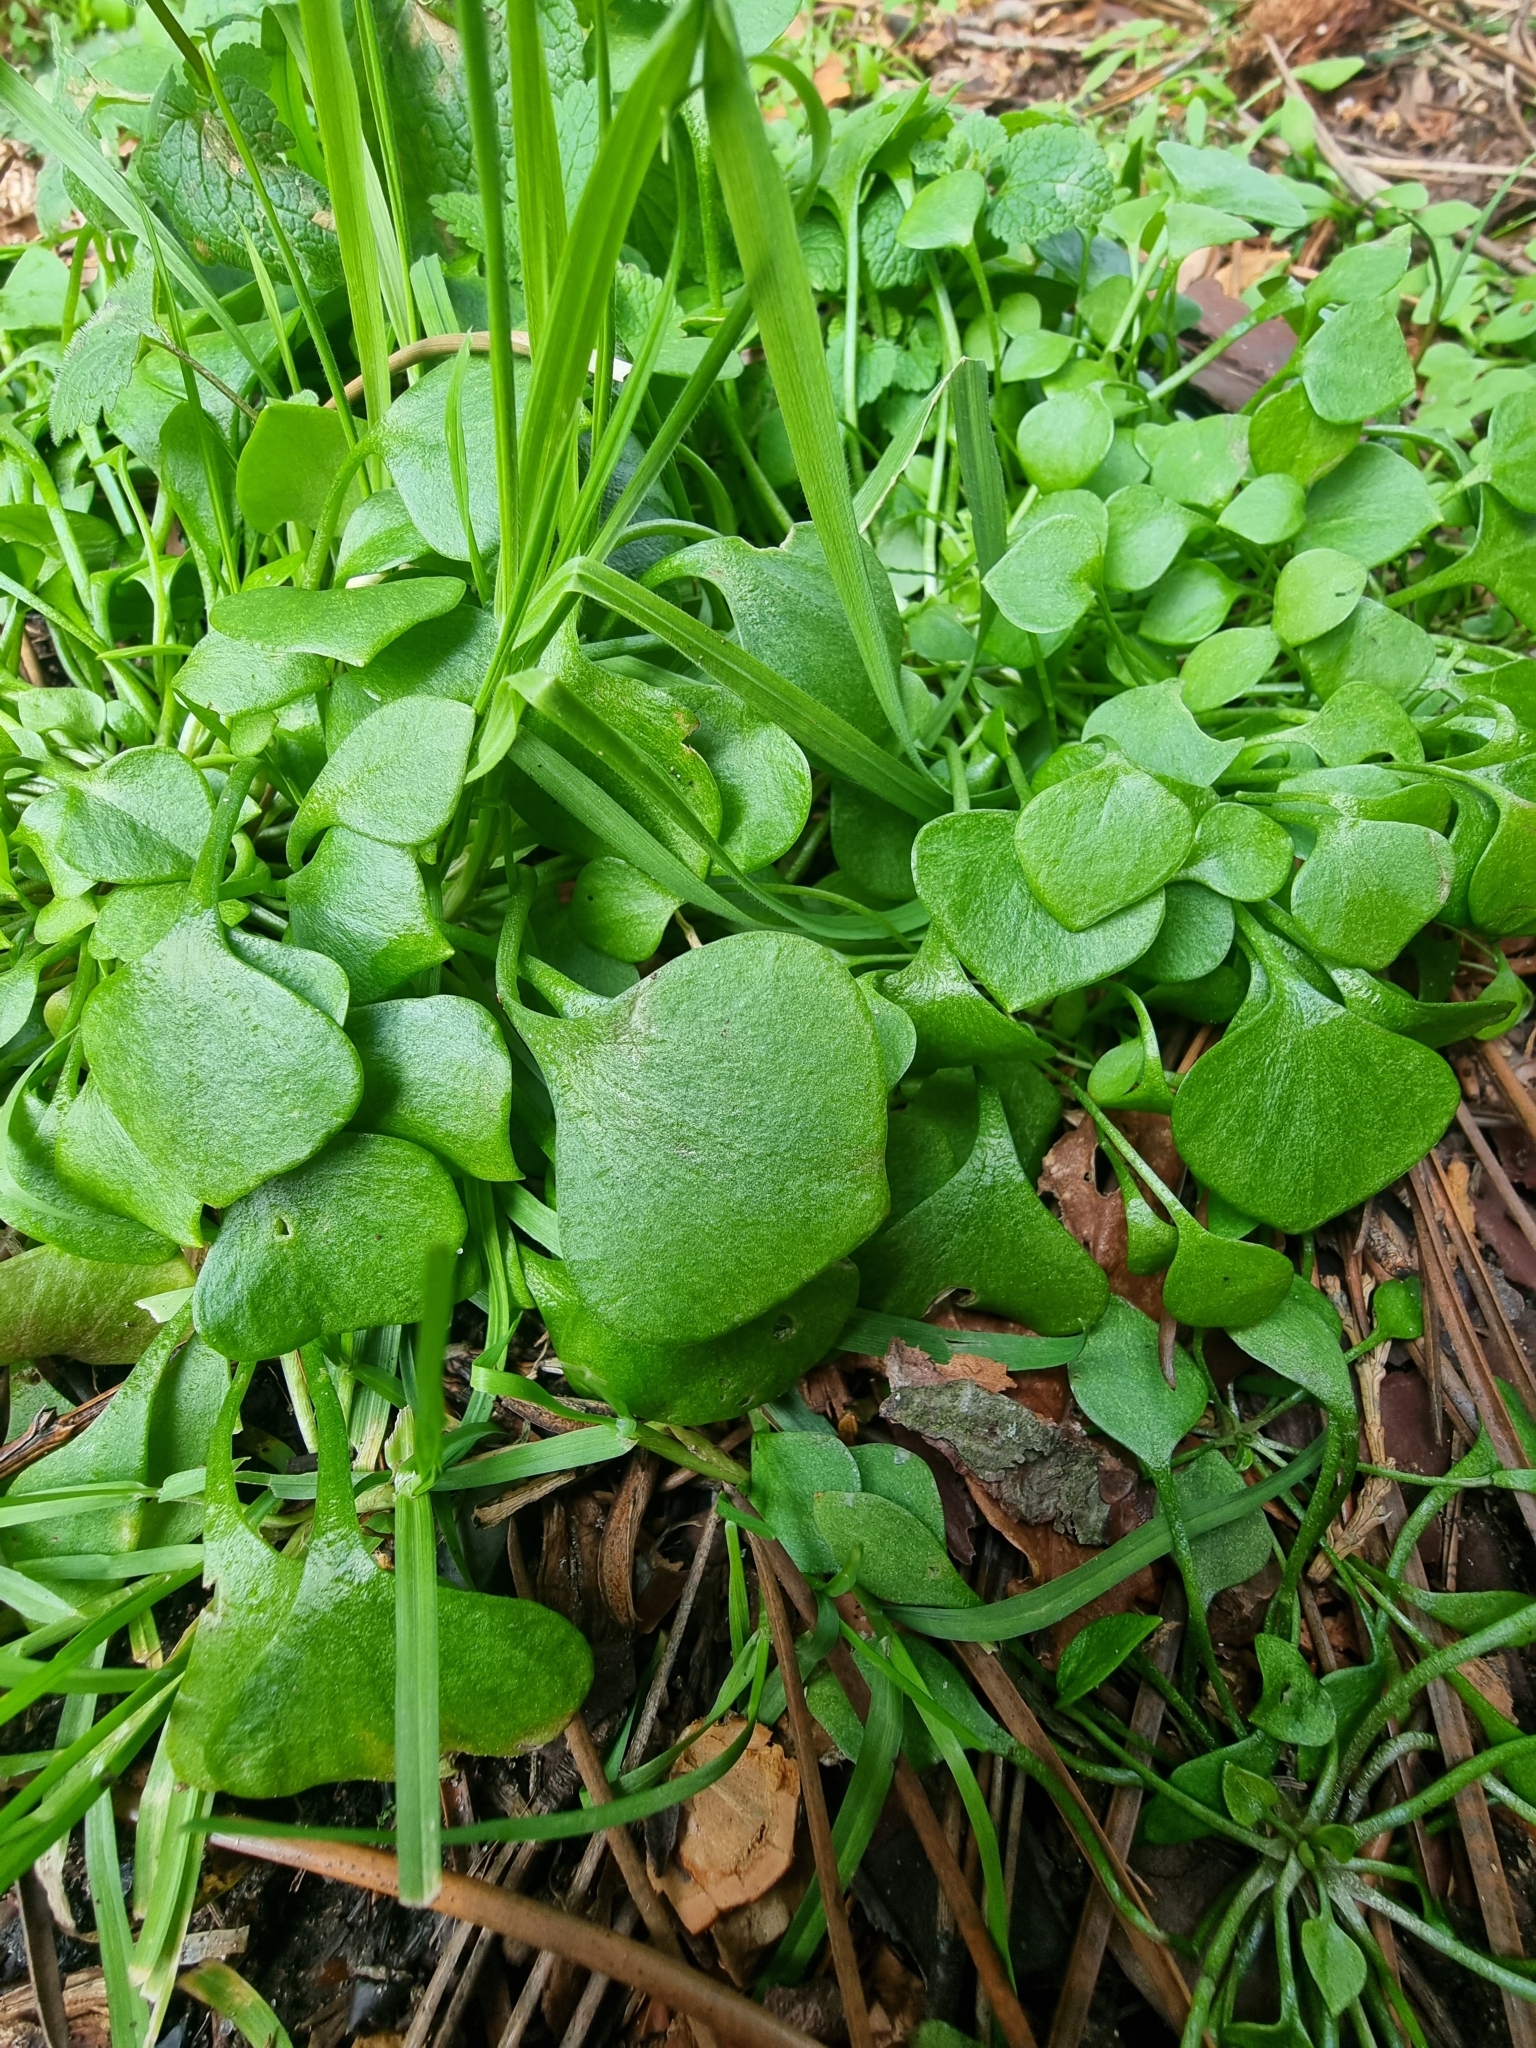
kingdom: Plantae
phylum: Tracheophyta
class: Magnoliopsida
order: Caryophyllales
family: Montiaceae
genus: Claytonia
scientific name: Claytonia perfoliata
